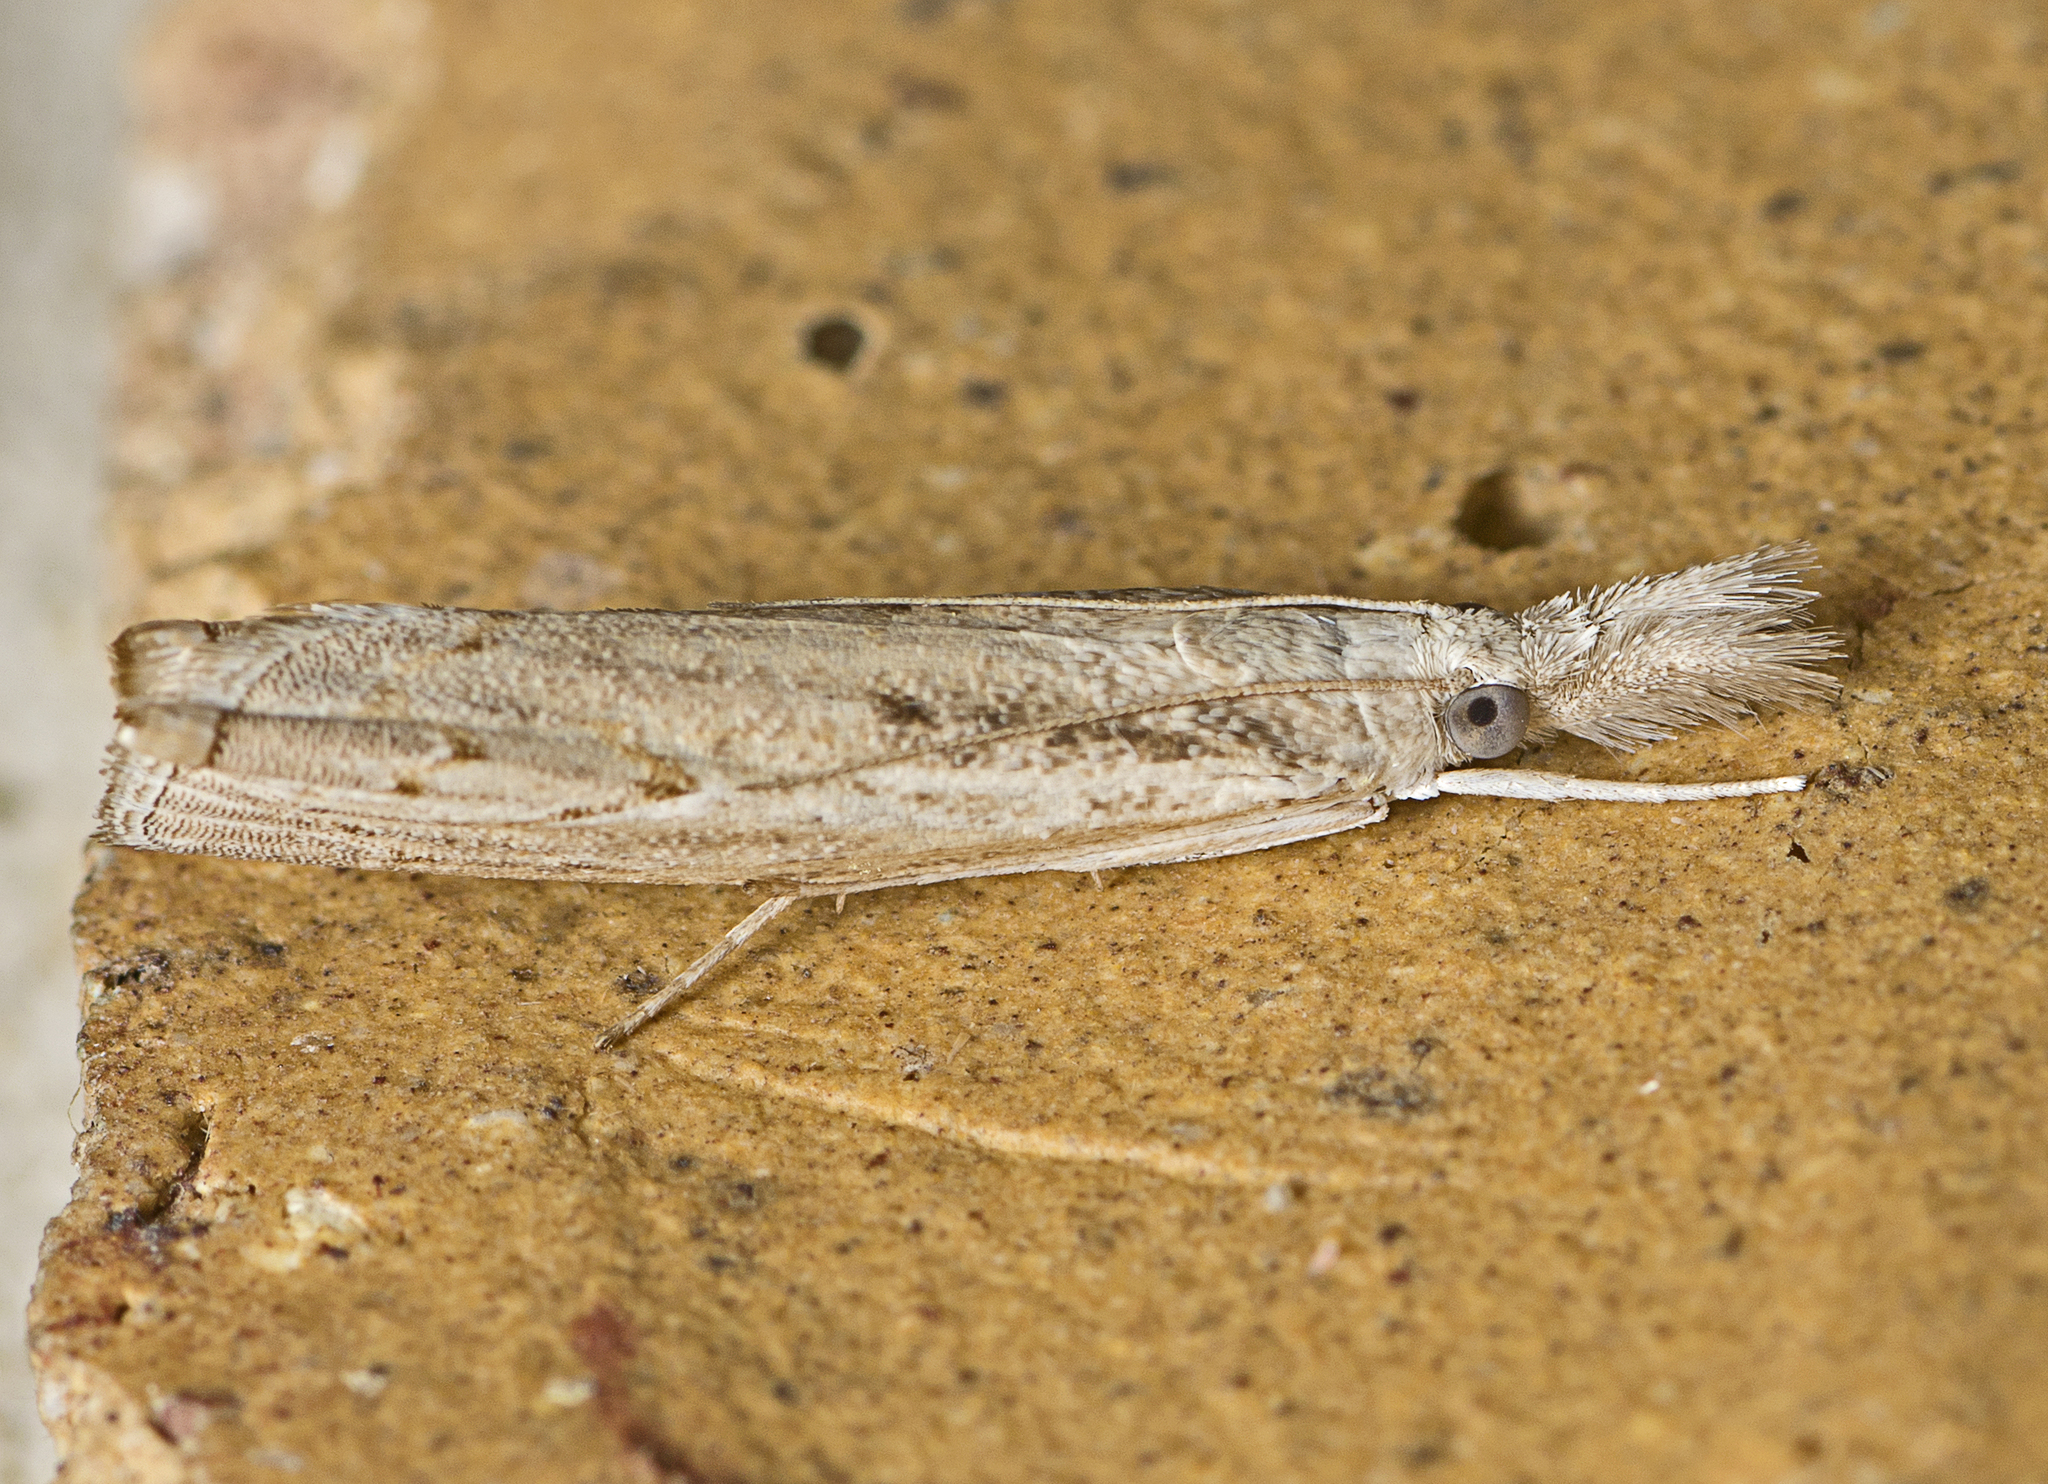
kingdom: Animalia
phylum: Arthropoda
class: Insecta
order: Lepidoptera
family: Crambidae
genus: Culladia
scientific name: Culladia cuneiferellus
